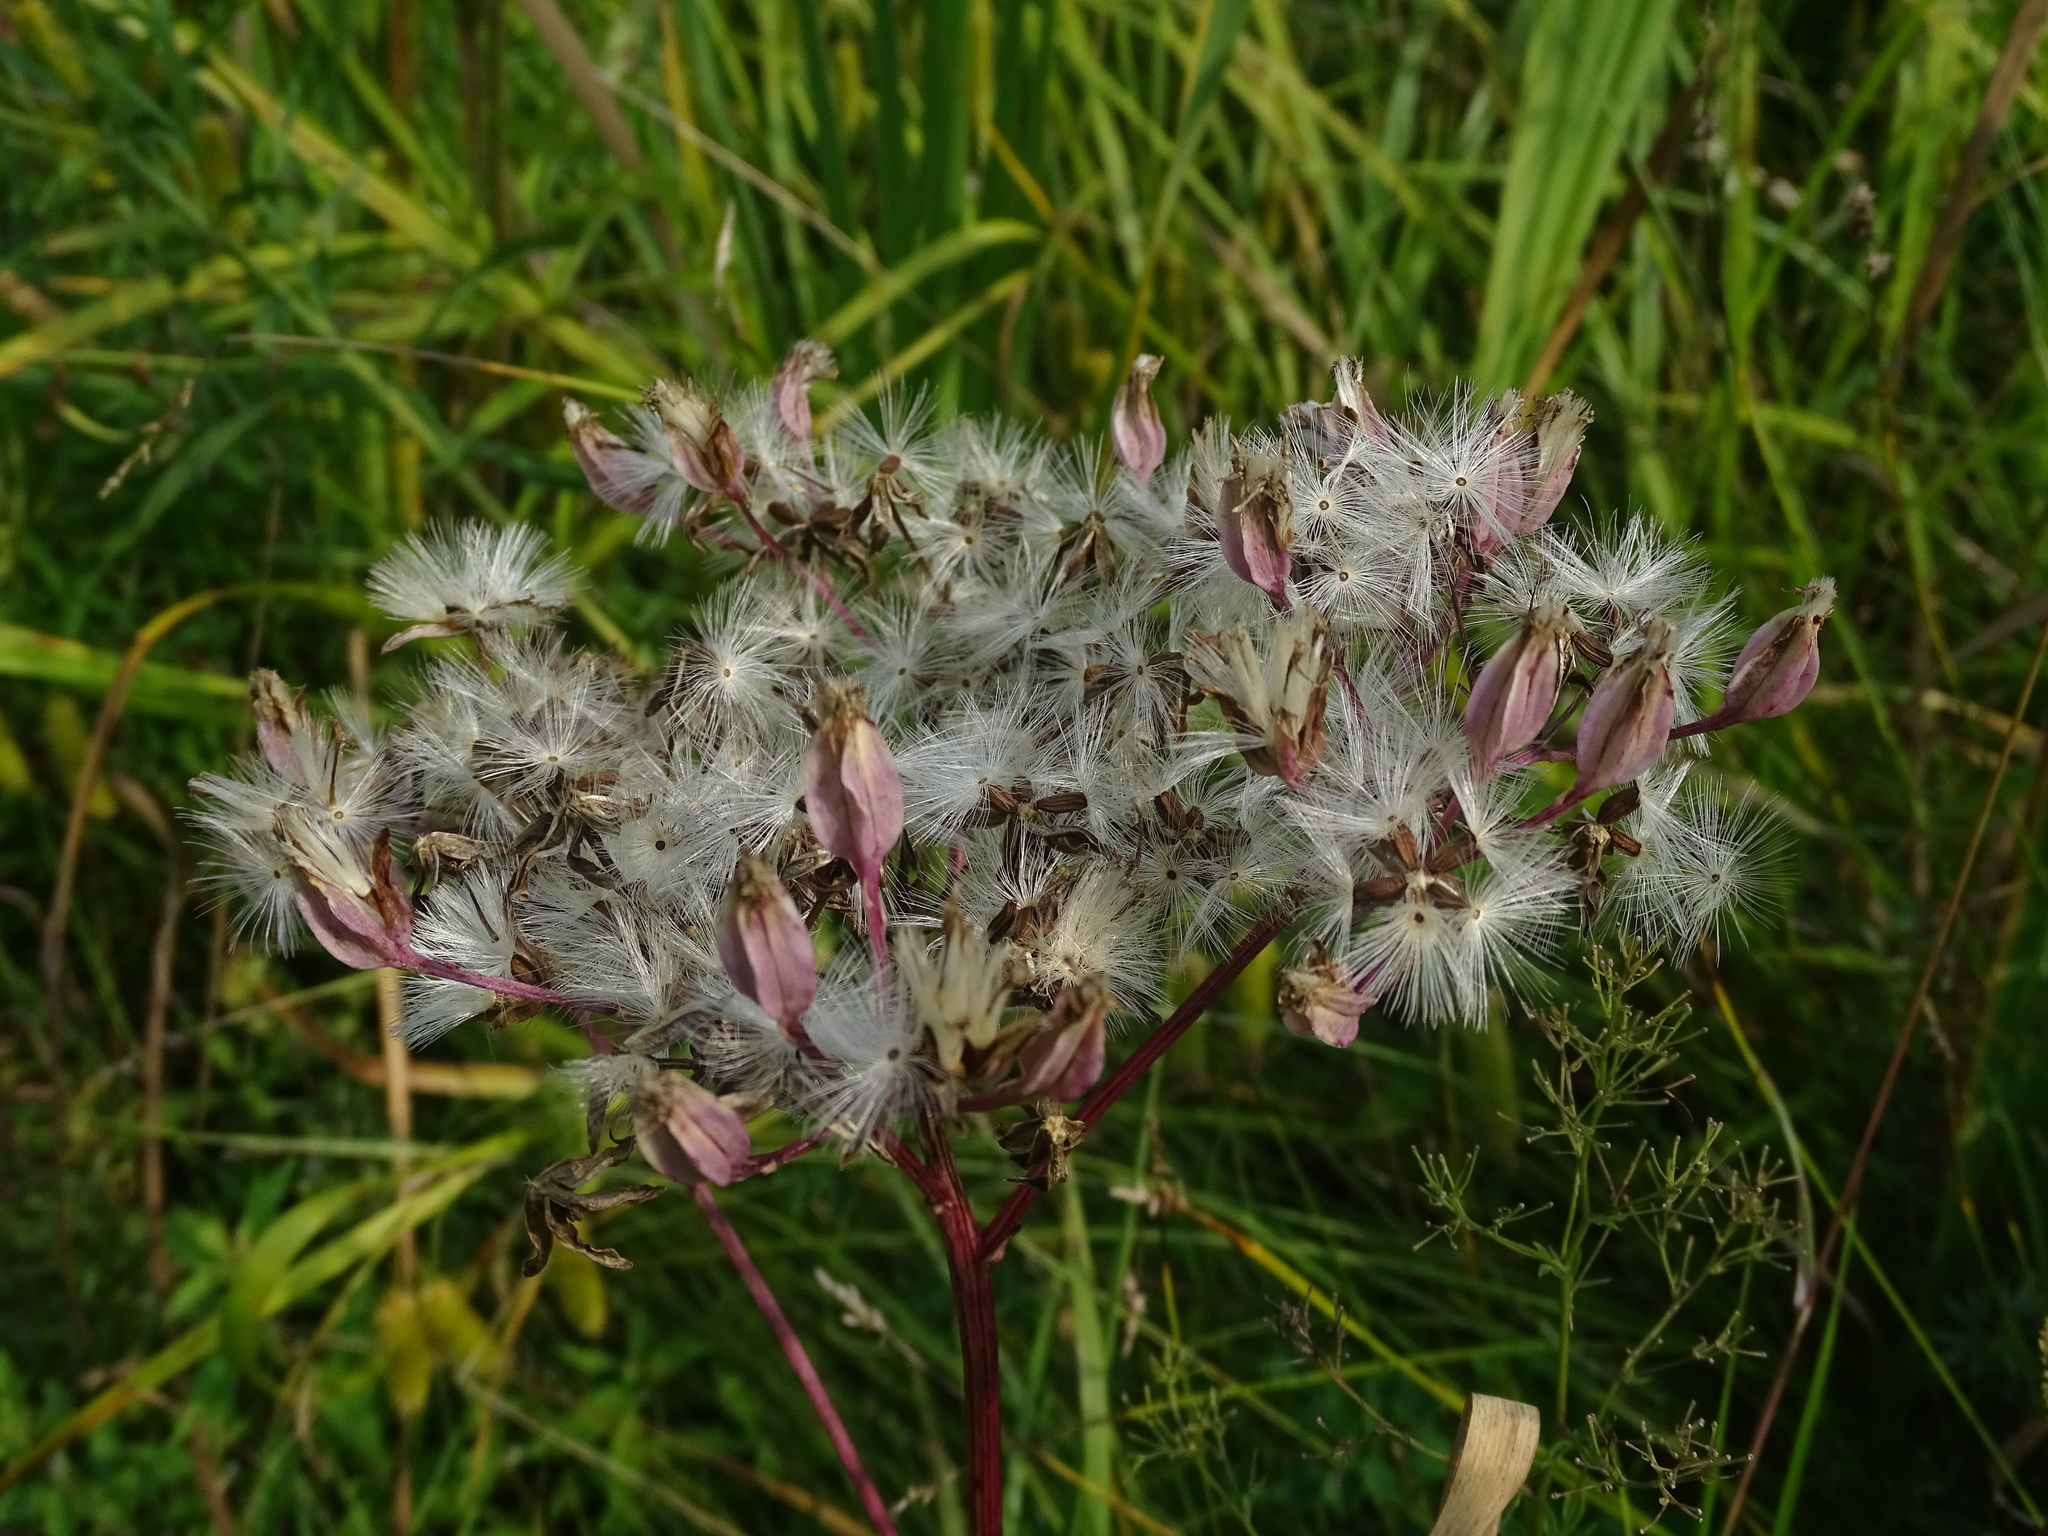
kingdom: Plantae
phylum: Tracheophyta
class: Magnoliopsida
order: Asterales
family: Asteraceae
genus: Arnoglossum
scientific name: Arnoglossum plantagineum
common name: Groove-stemmed indian-plantain
